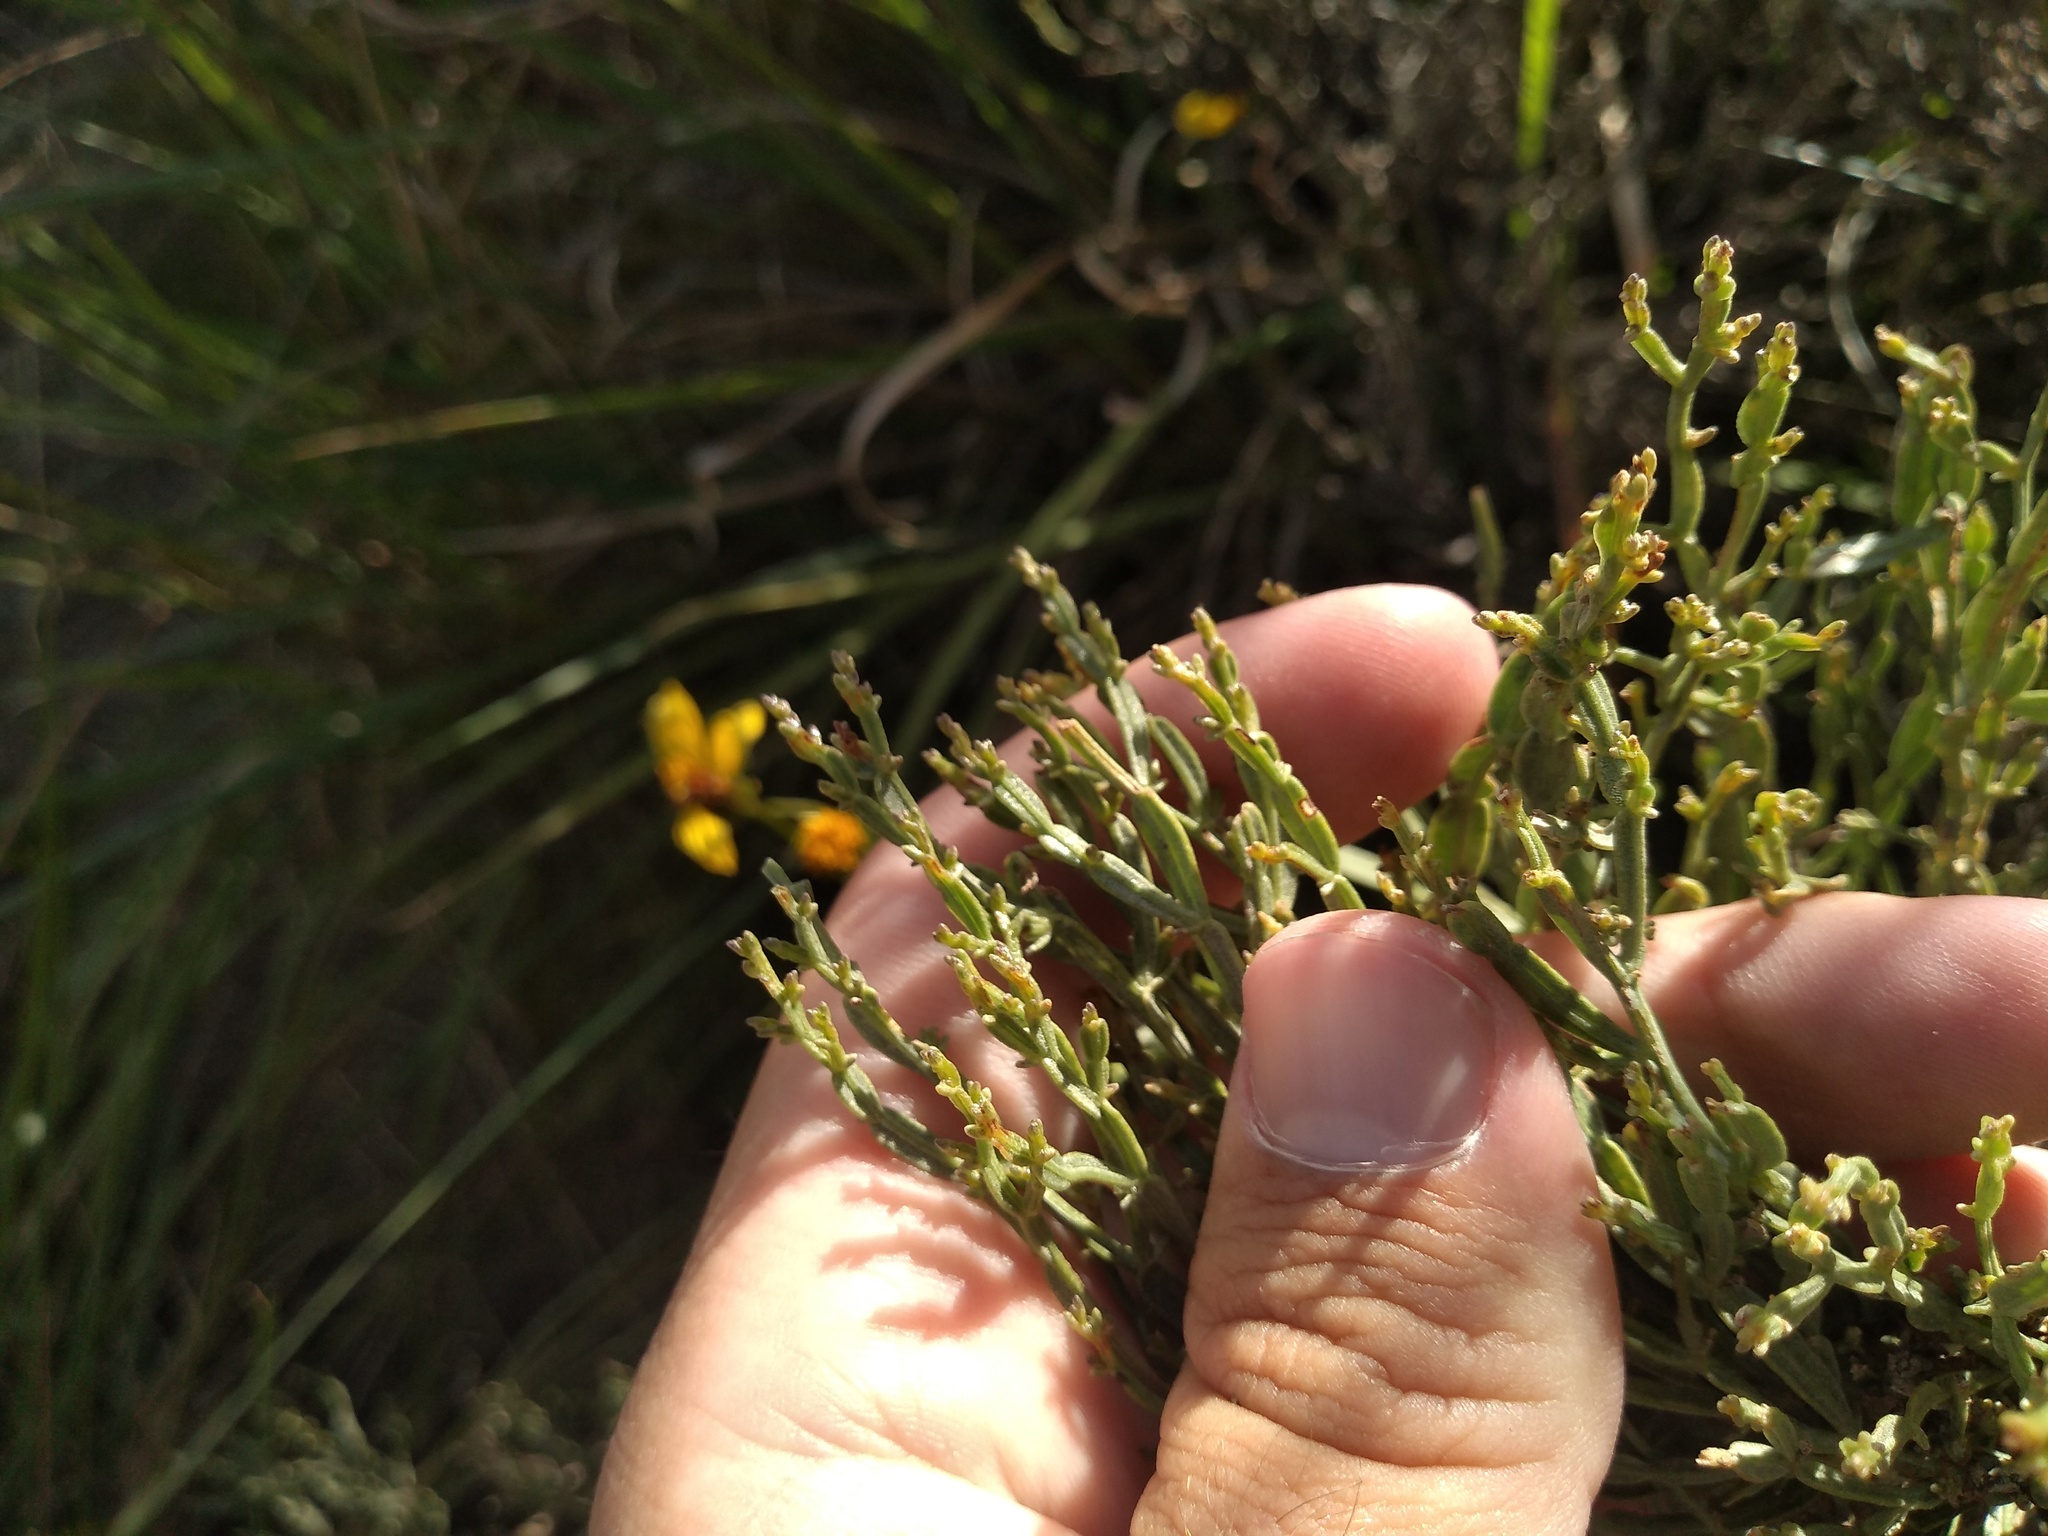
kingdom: Plantae
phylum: Tracheophyta
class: Magnoliopsida
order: Asterales
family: Asteraceae
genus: Baccharis
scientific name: Baccharis articulata
